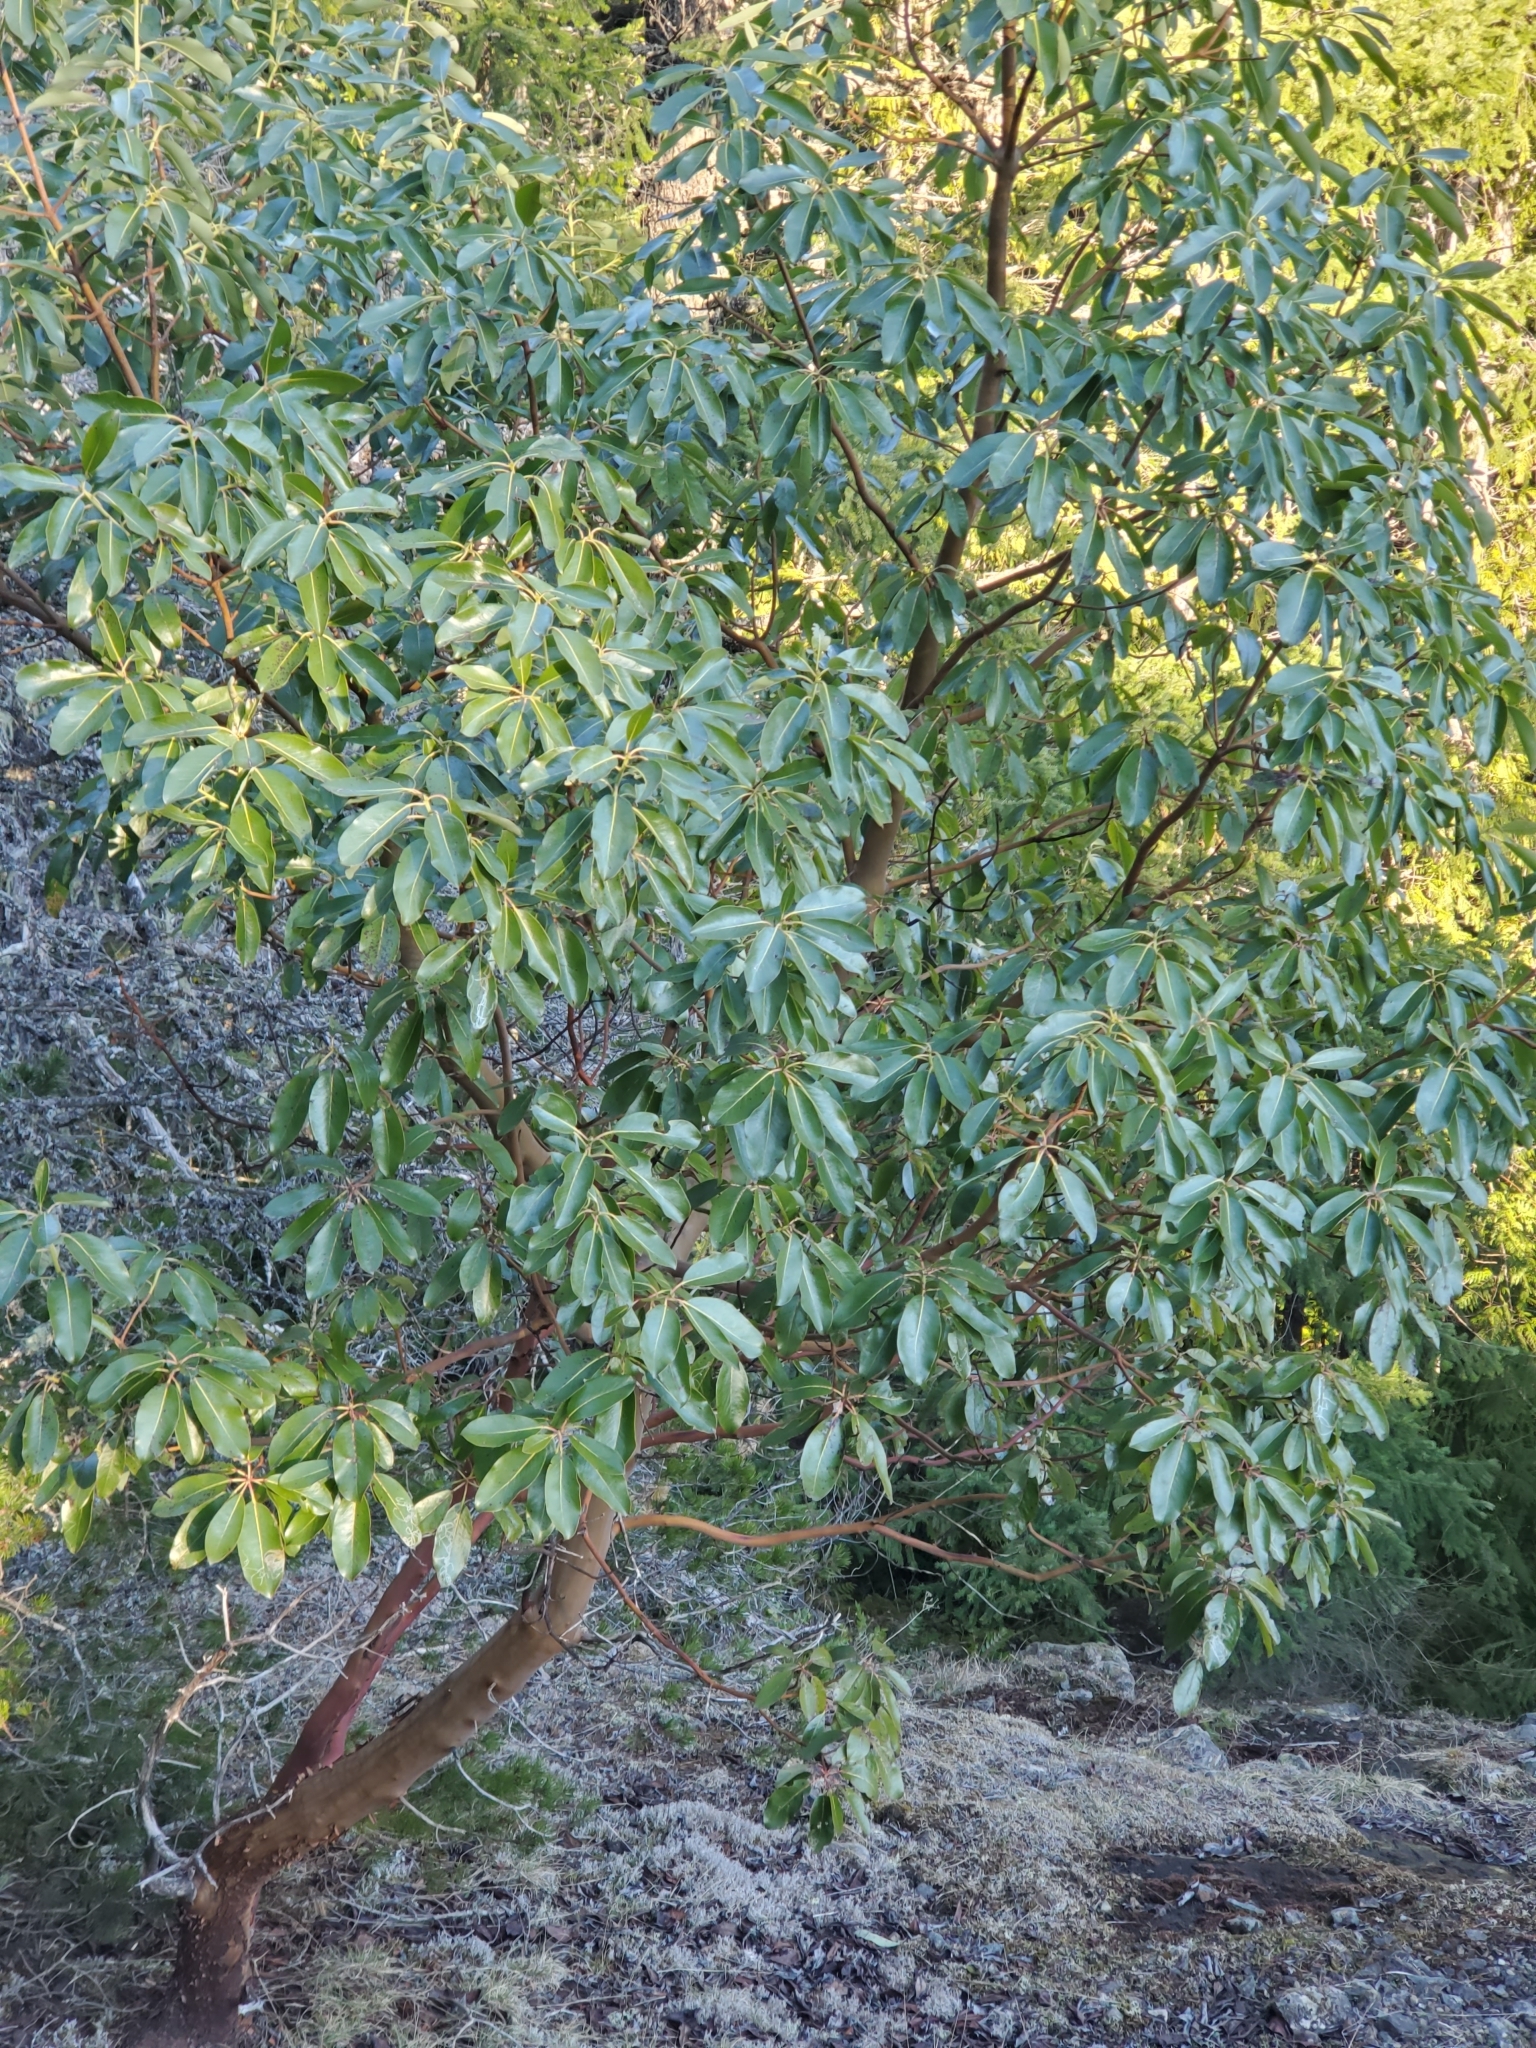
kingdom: Plantae
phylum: Tracheophyta
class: Magnoliopsida
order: Ericales
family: Ericaceae
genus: Arbutus
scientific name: Arbutus menziesii
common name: Pacific madrone
